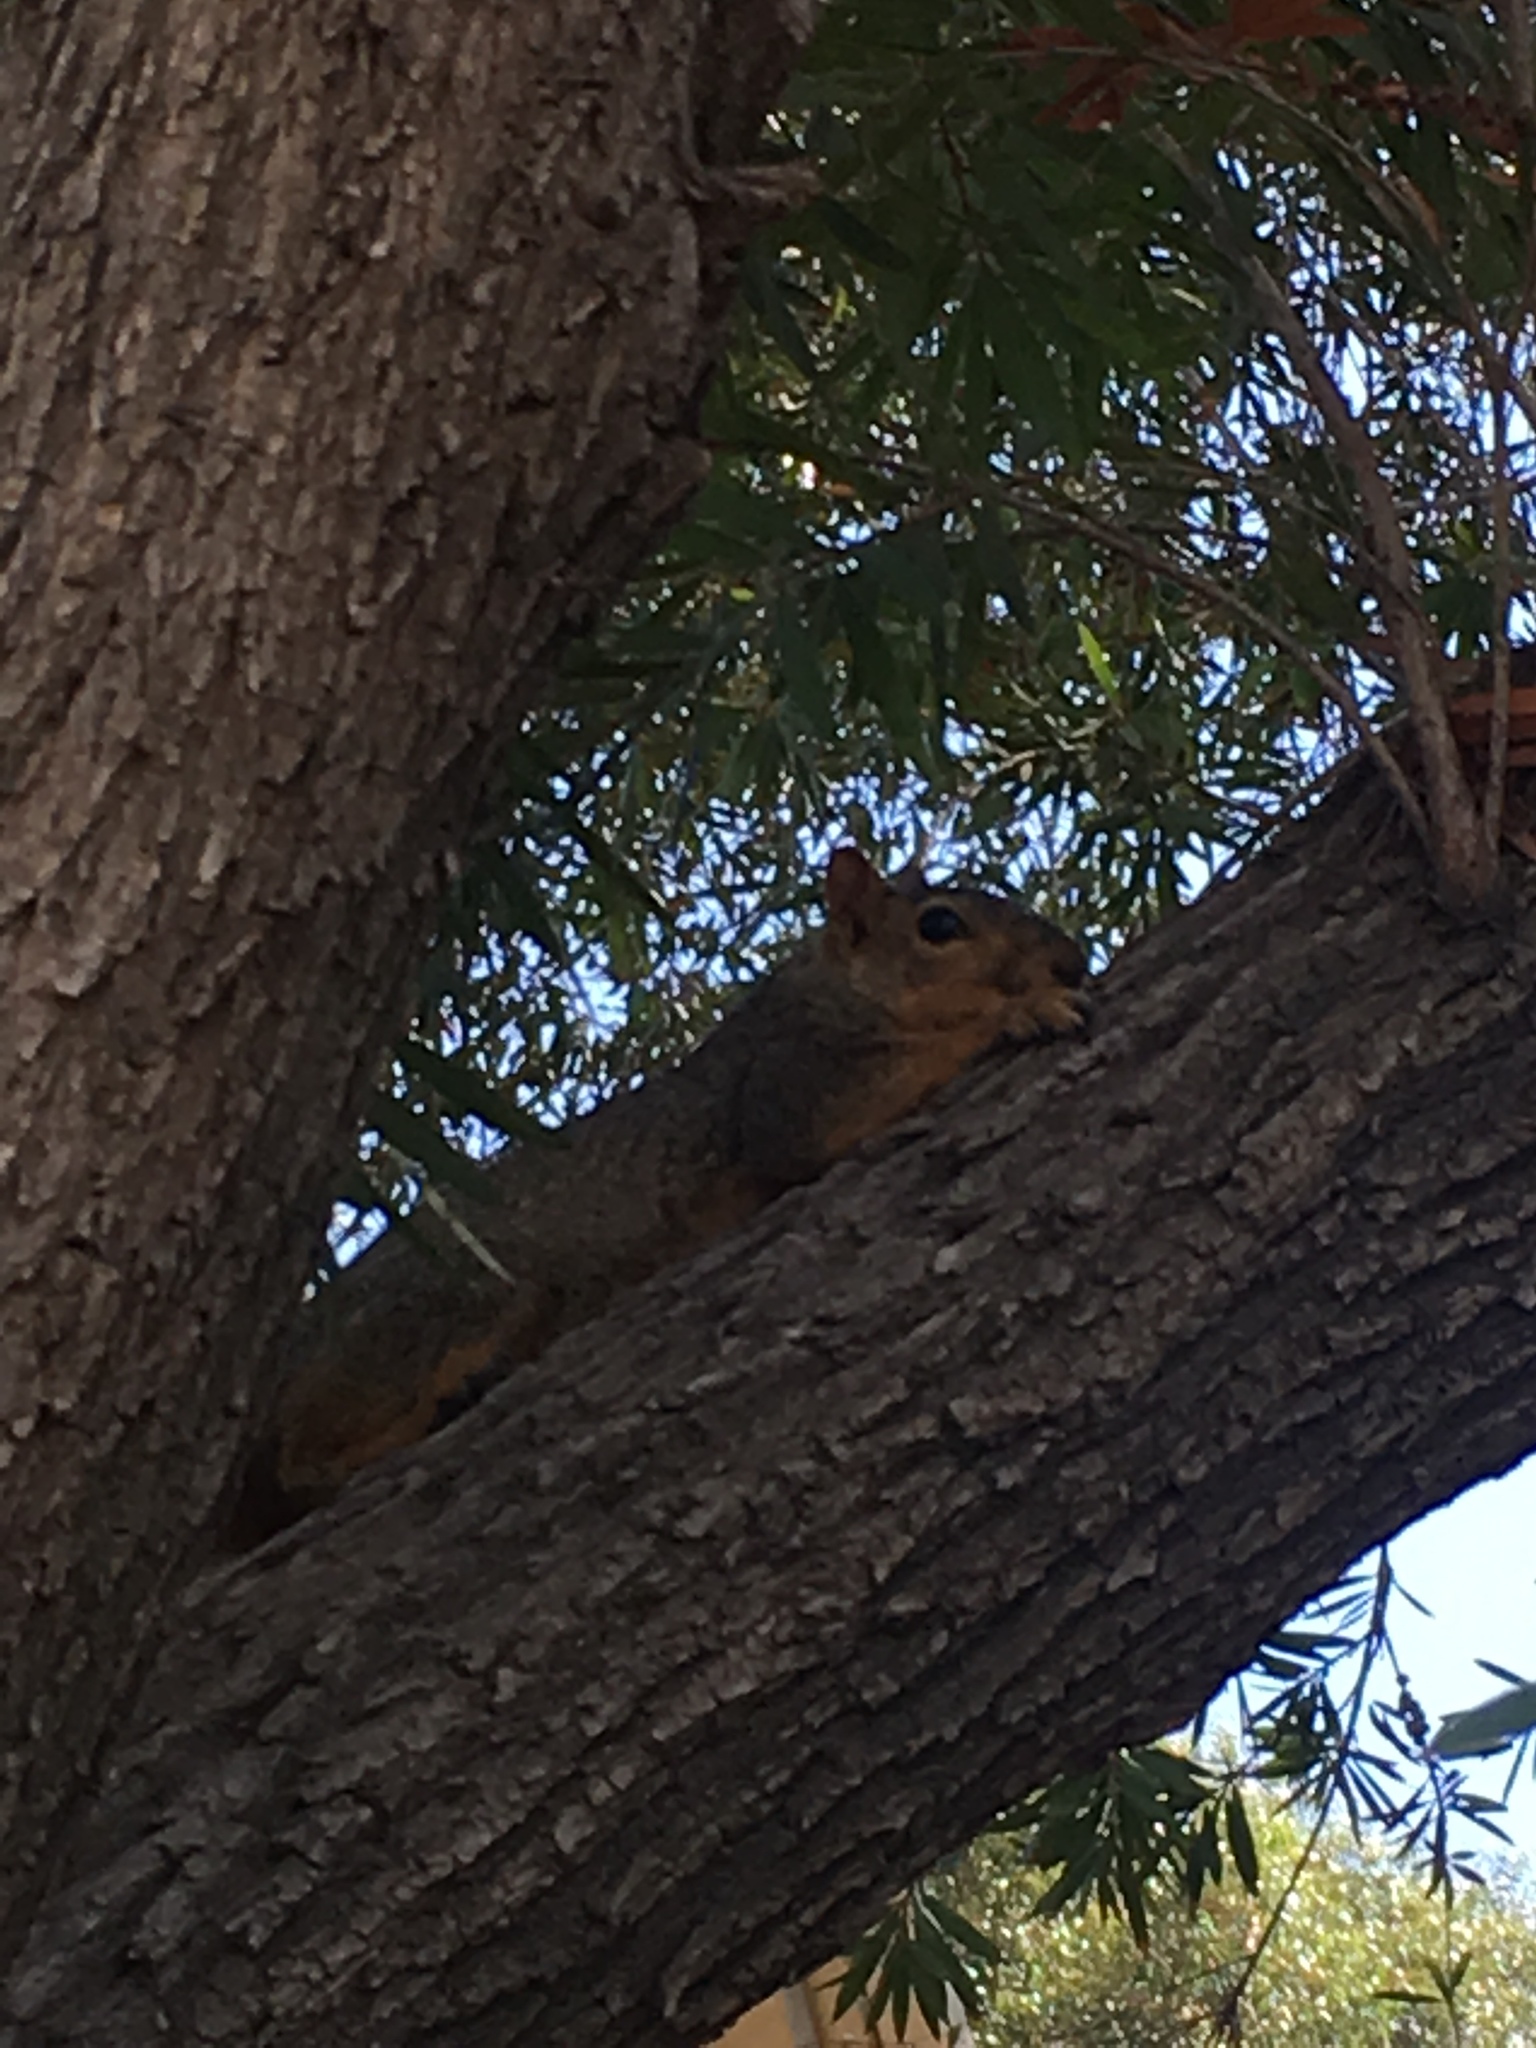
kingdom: Animalia
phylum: Chordata
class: Mammalia
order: Rodentia
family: Sciuridae
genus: Sciurus
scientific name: Sciurus niger
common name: Fox squirrel
